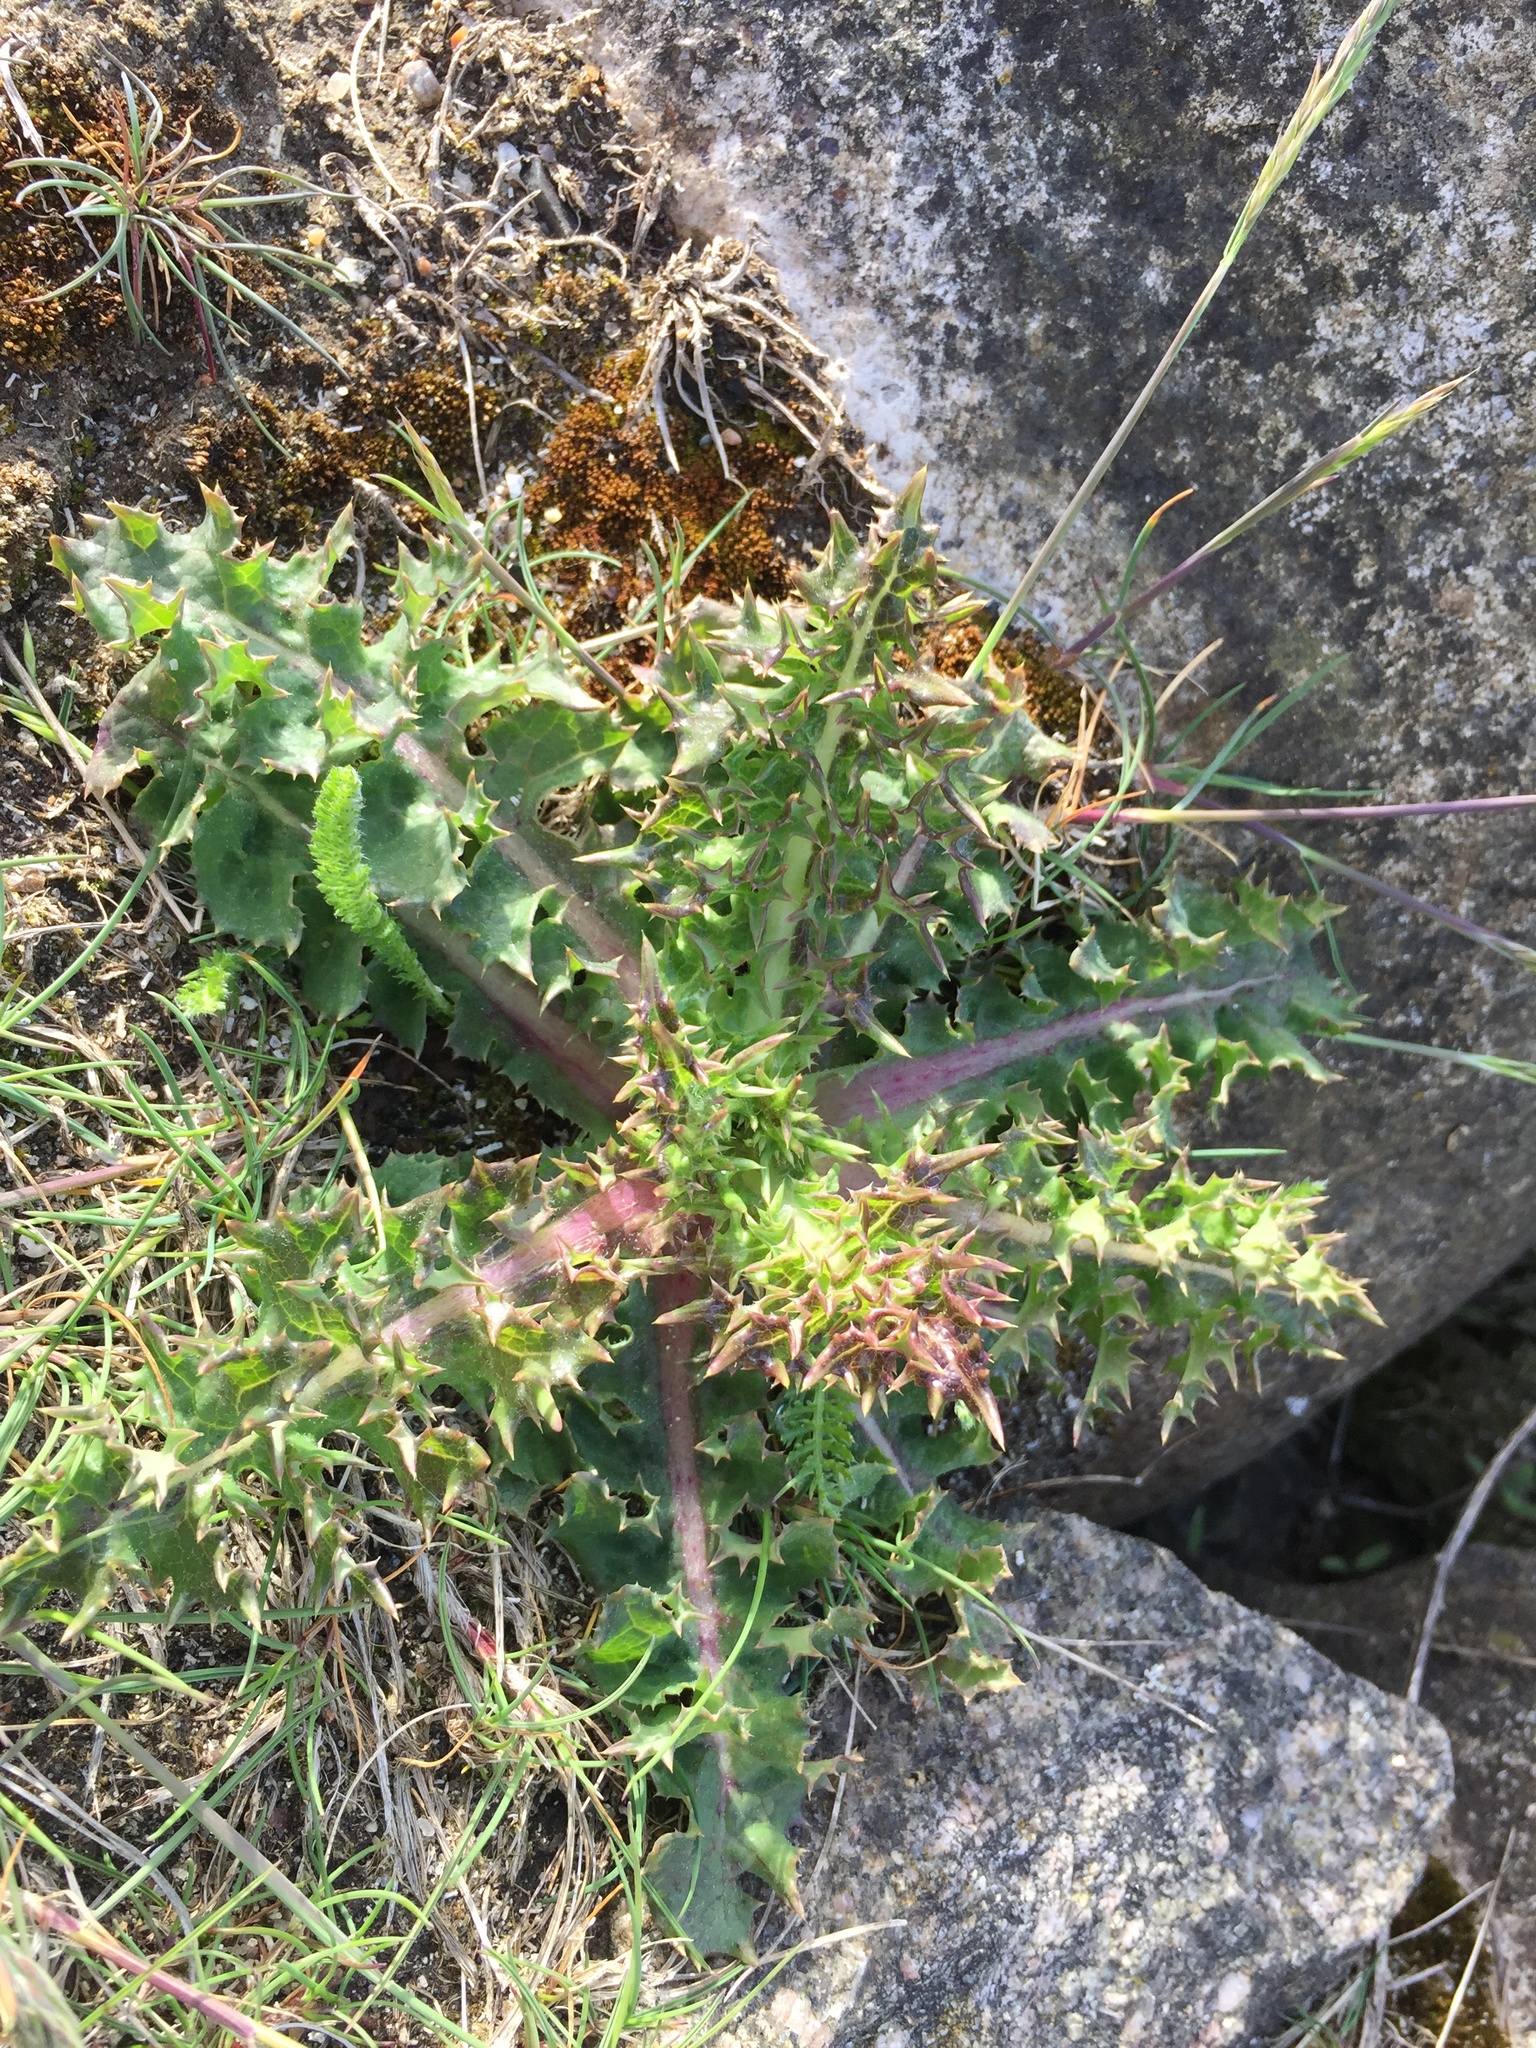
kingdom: Plantae
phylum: Tracheophyta
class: Magnoliopsida
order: Asterales
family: Asteraceae
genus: Sonchus
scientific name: Sonchus asper
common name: Prickly sow-thistle
